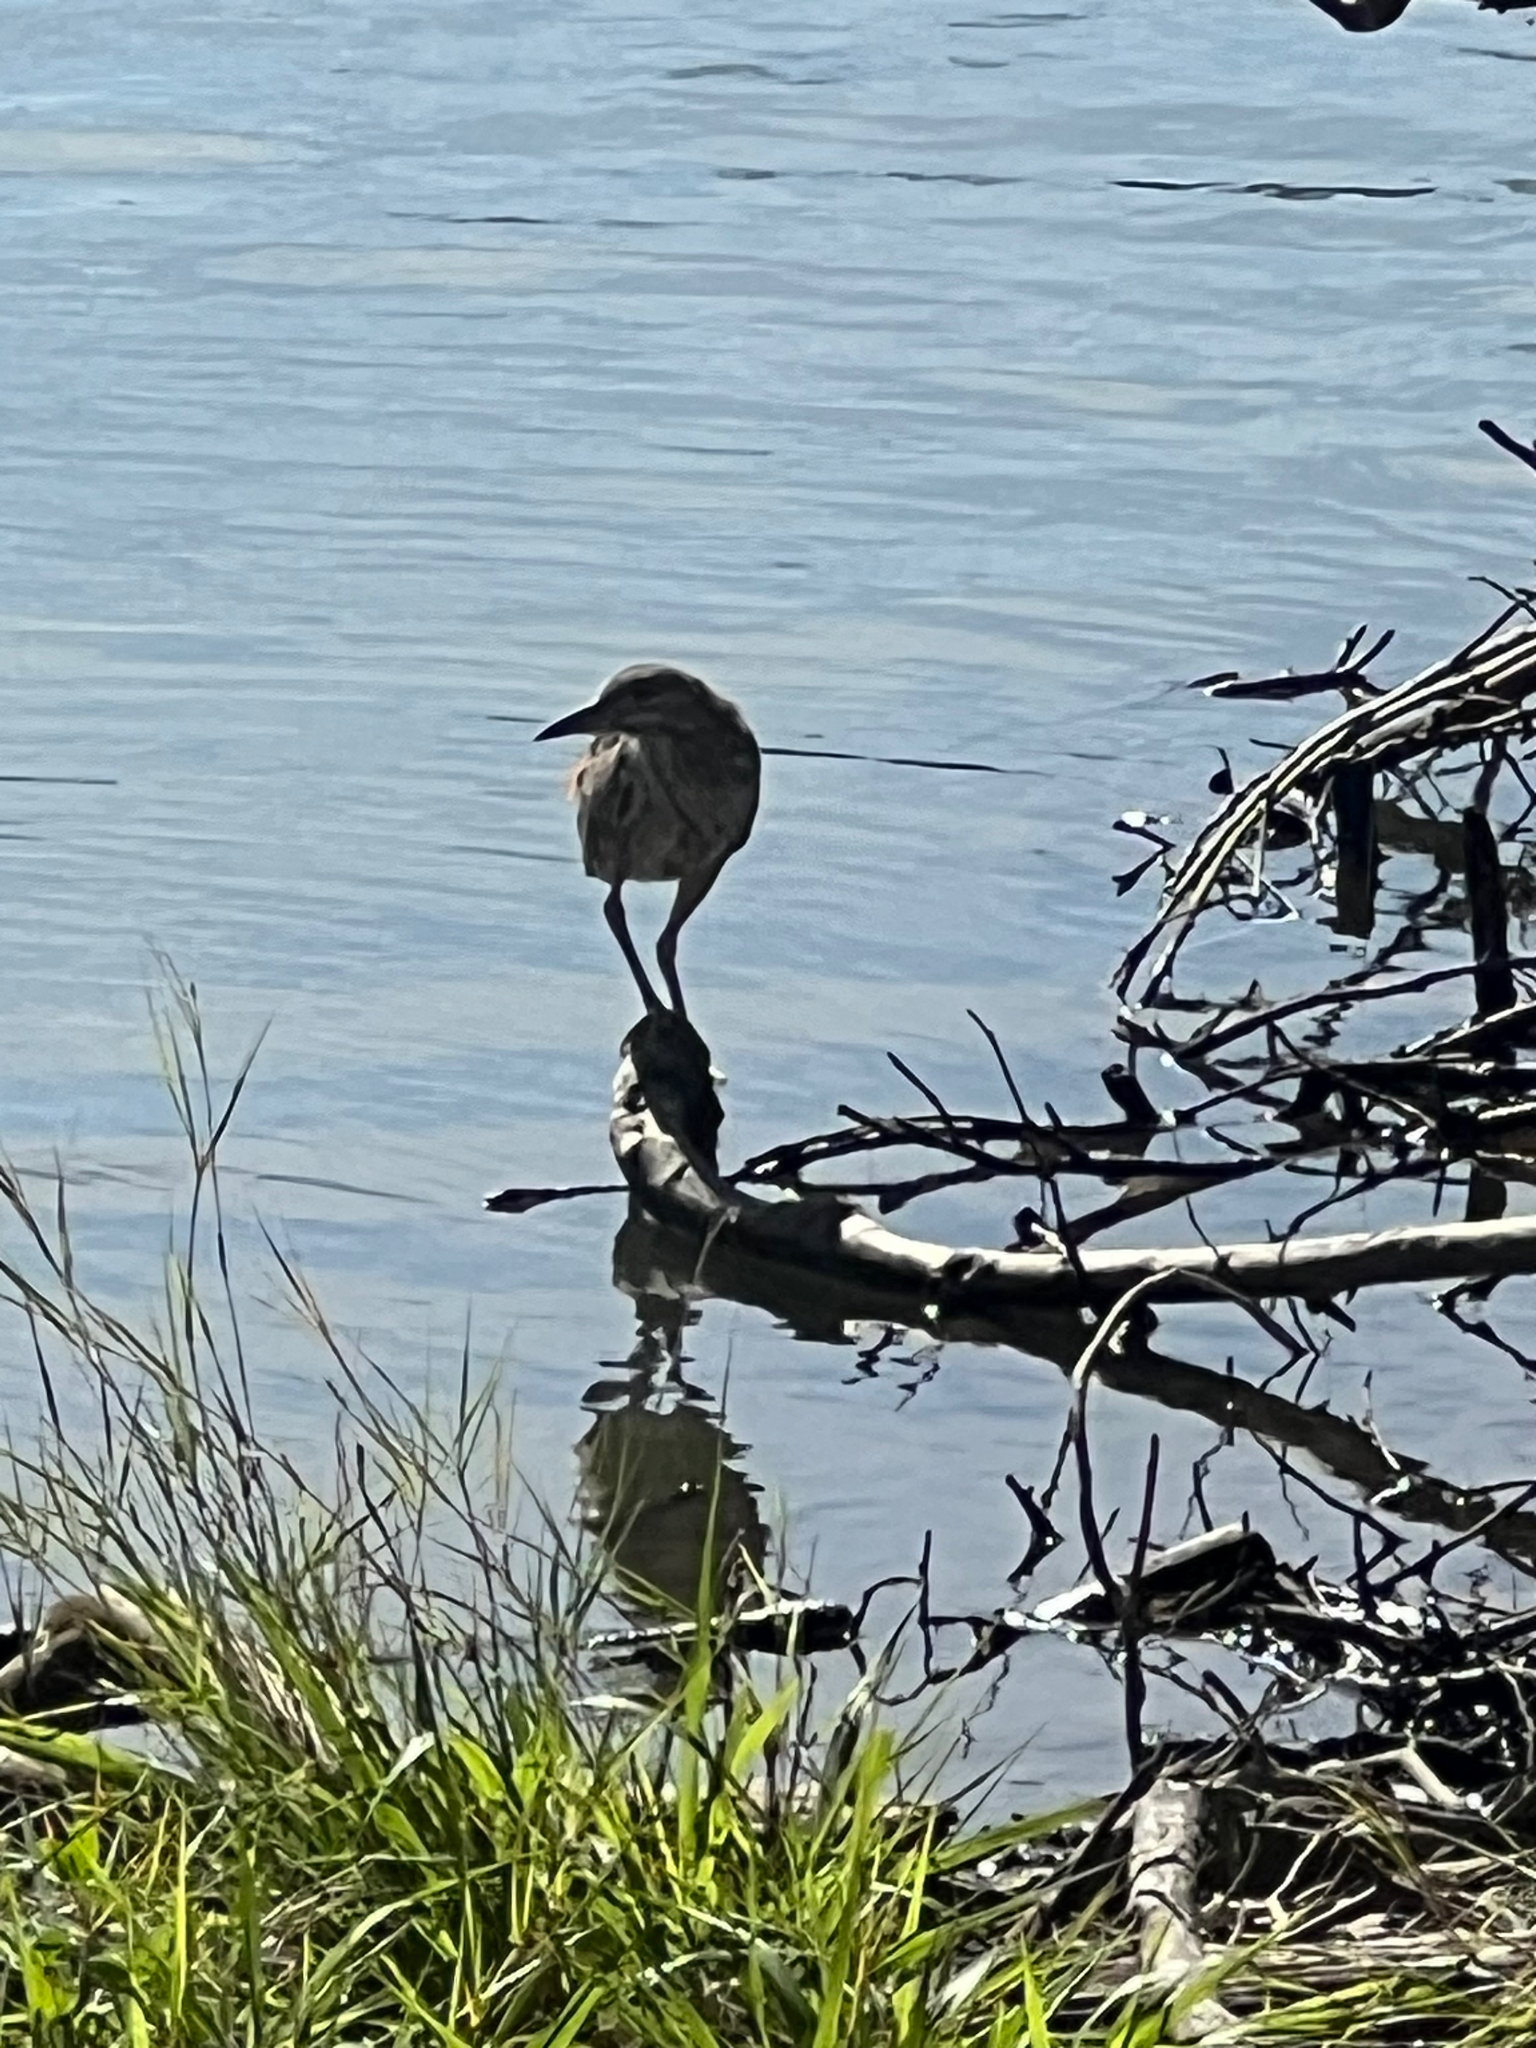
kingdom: Animalia
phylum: Chordata
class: Aves
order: Pelecaniformes
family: Ardeidae
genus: Nycticorax
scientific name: Nycticorax nycticorax
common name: Black-crowned night heron
